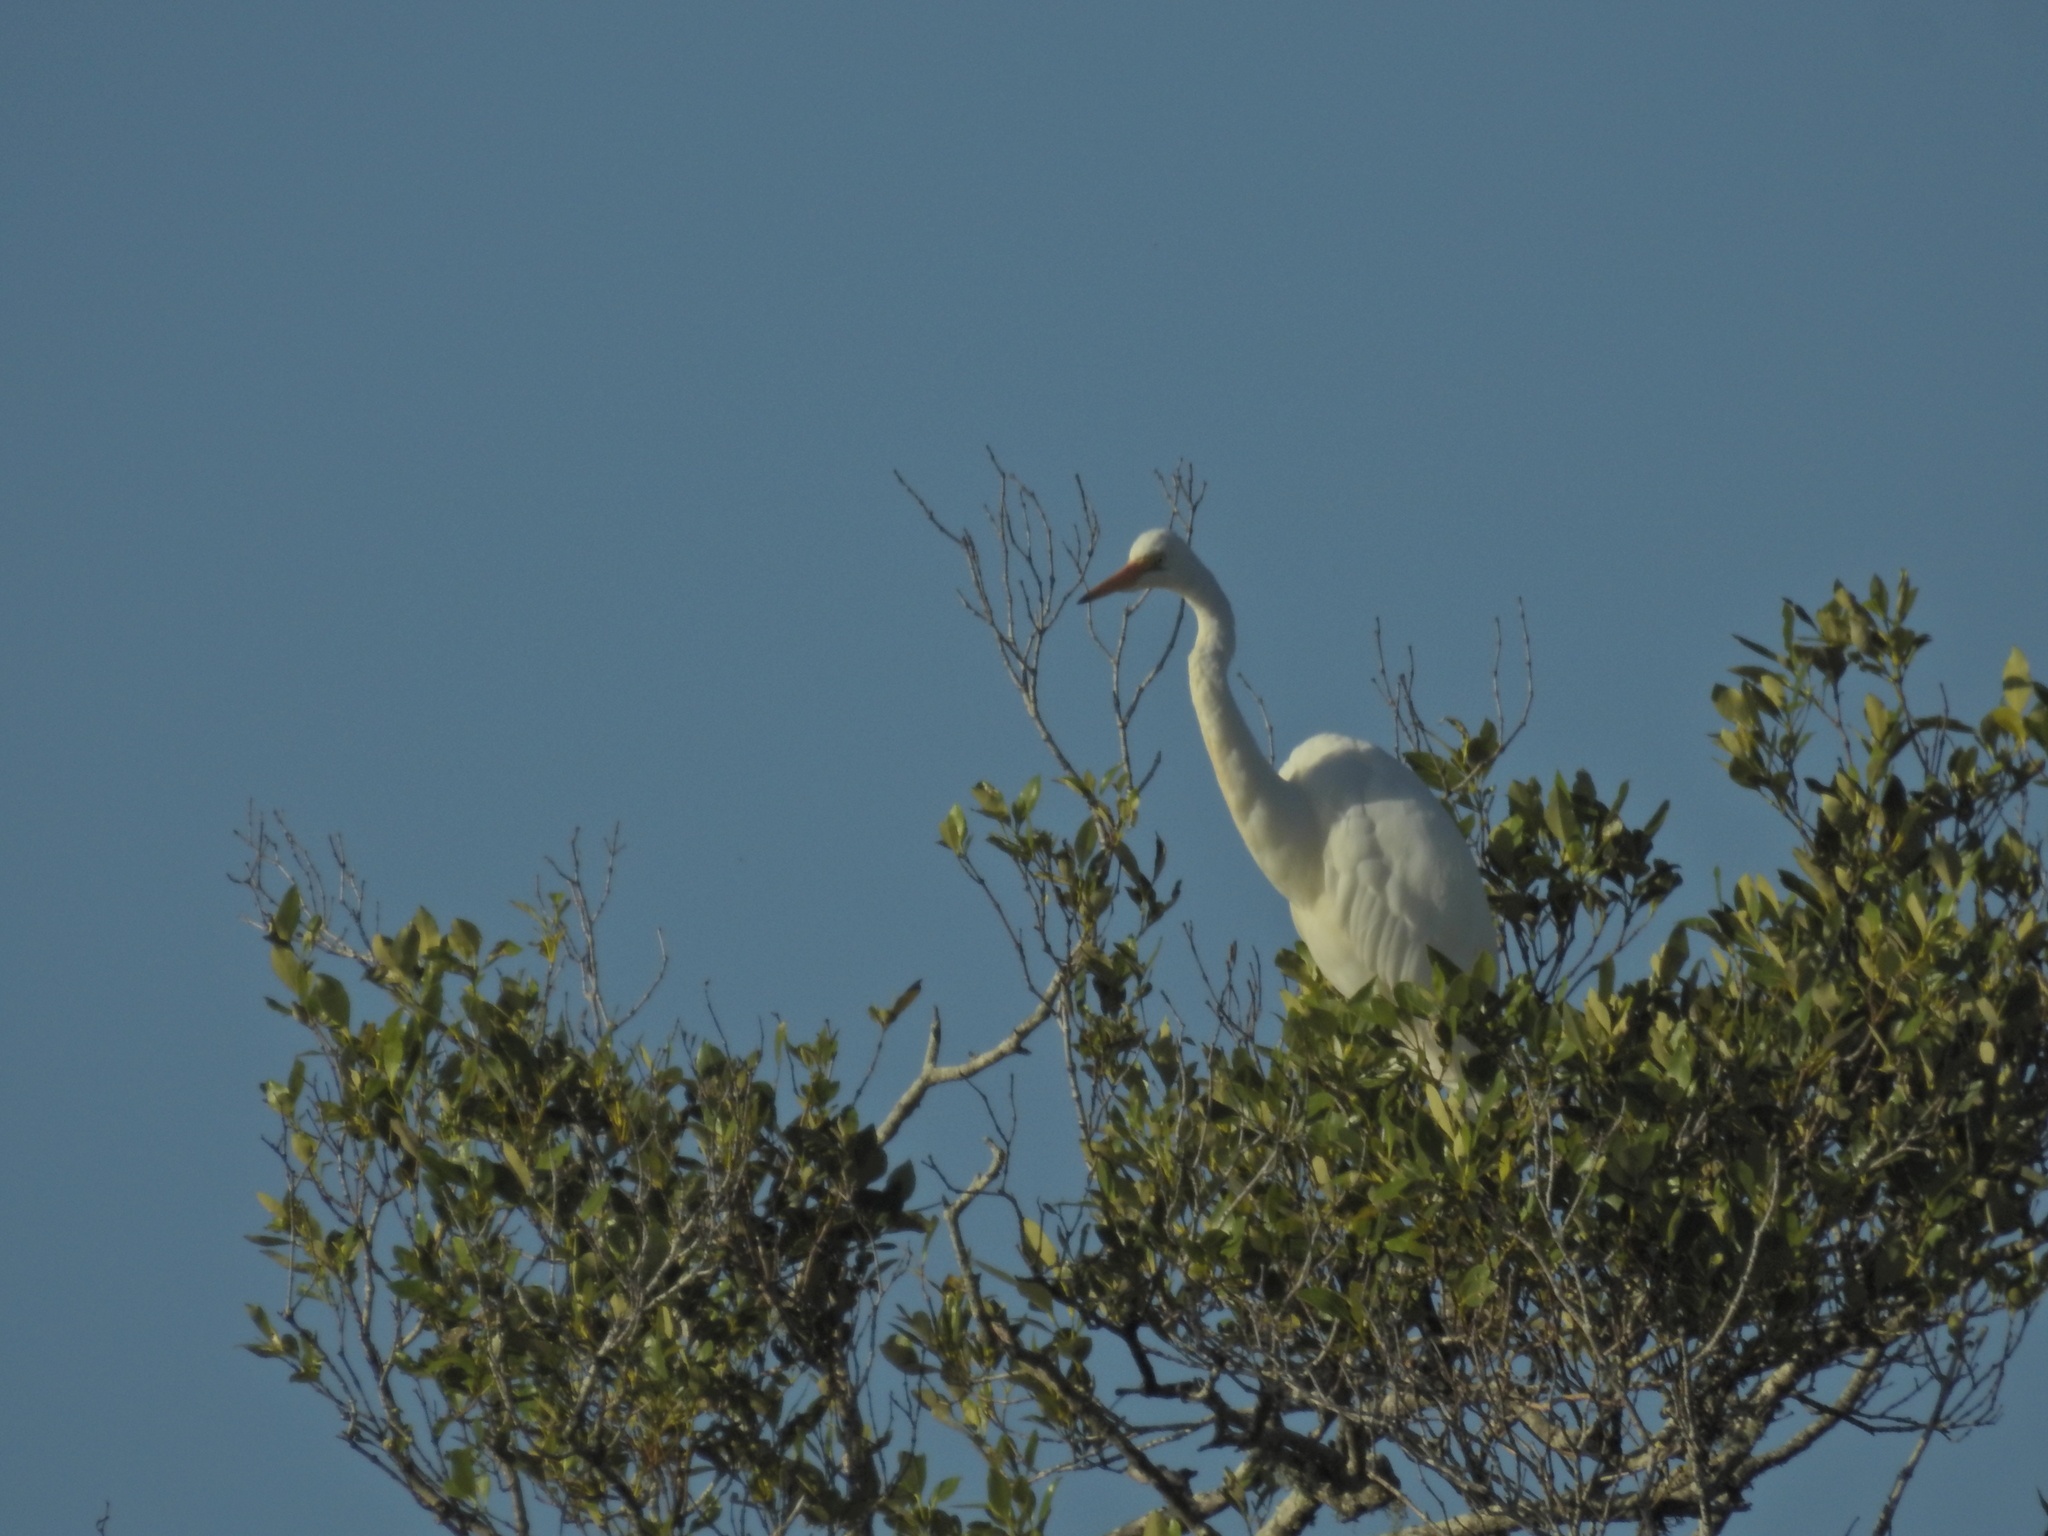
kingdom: Animalia
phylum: Chordata
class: Aves
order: Pelecaniformes
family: Ardeidae
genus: Ardea
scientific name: Ardea alba
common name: Great egret
